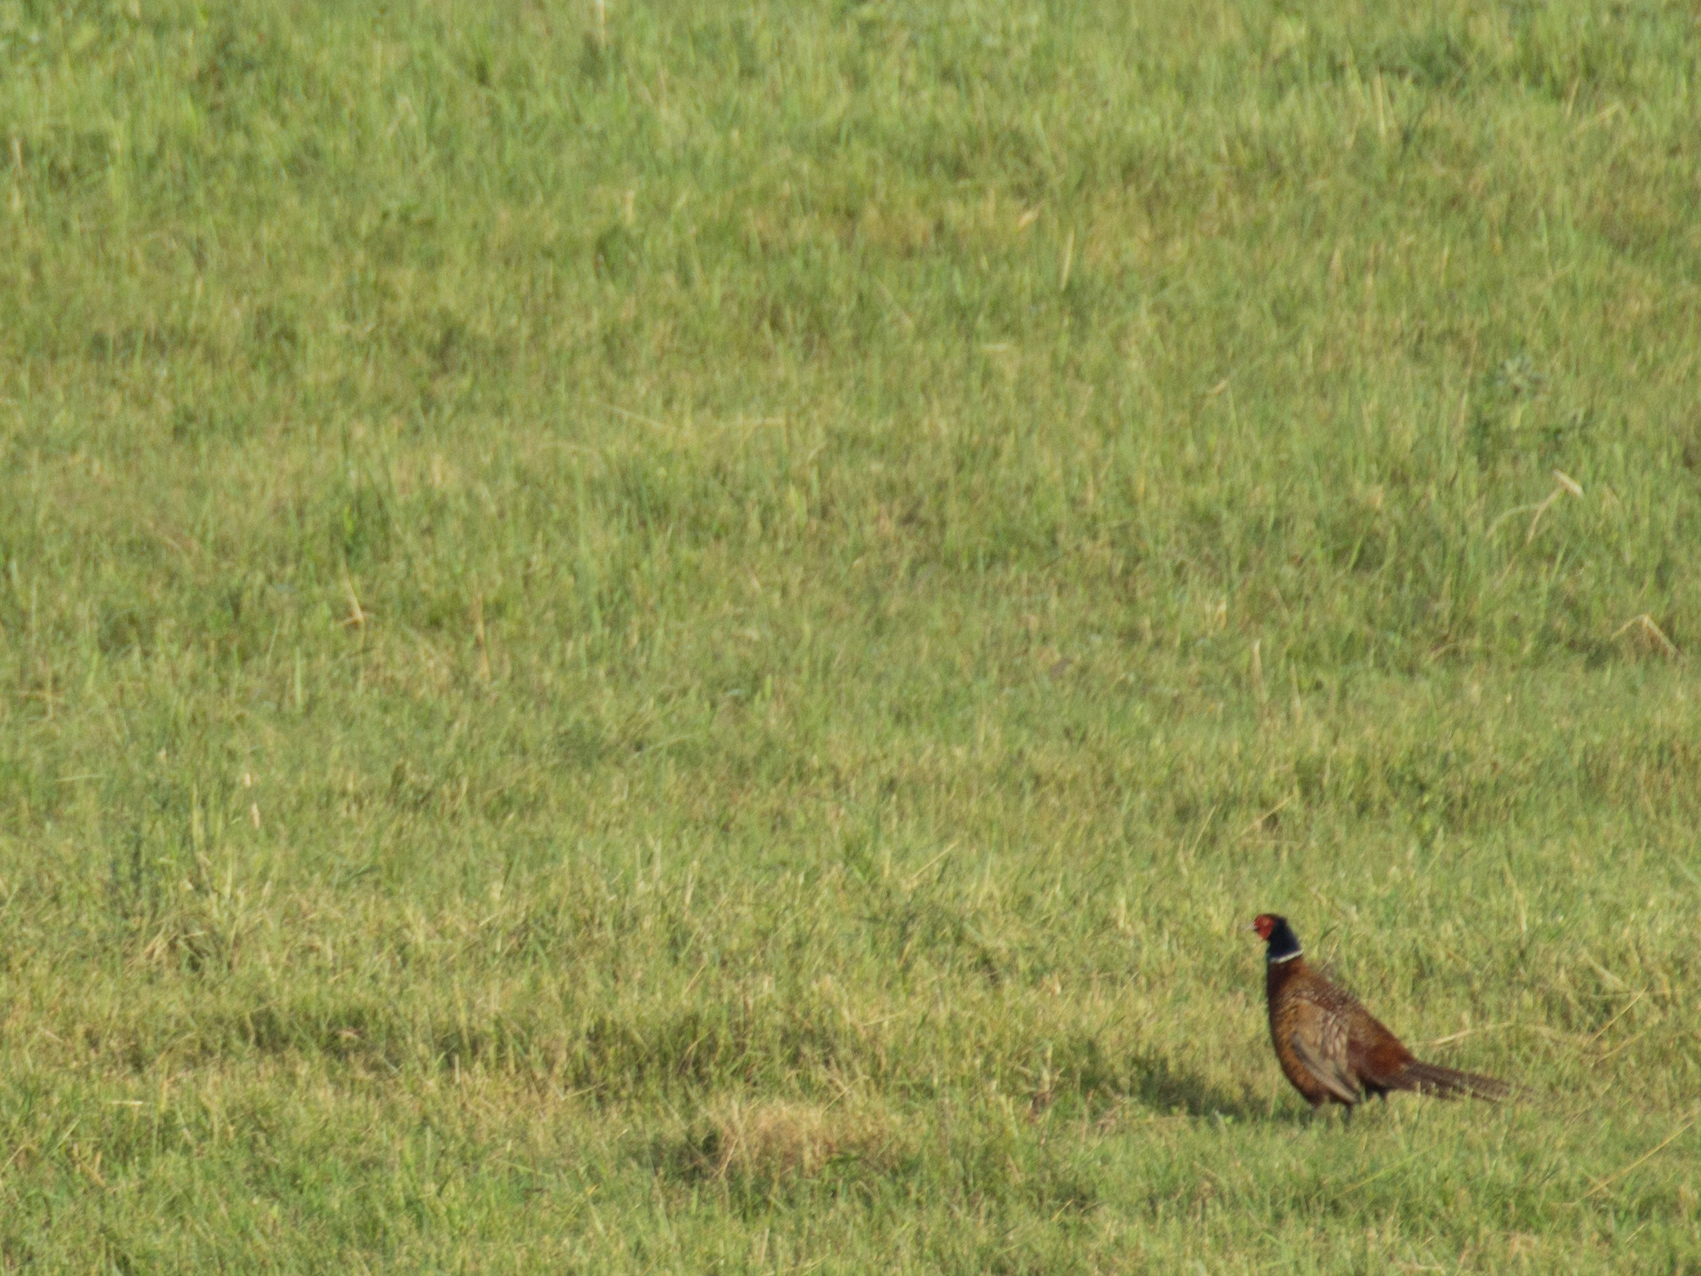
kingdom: Animalia
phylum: Chordata
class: Aves
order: Galliformes
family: Phasianidae
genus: Phasianus
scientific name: Phasianus colchicus
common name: Common pheasant
